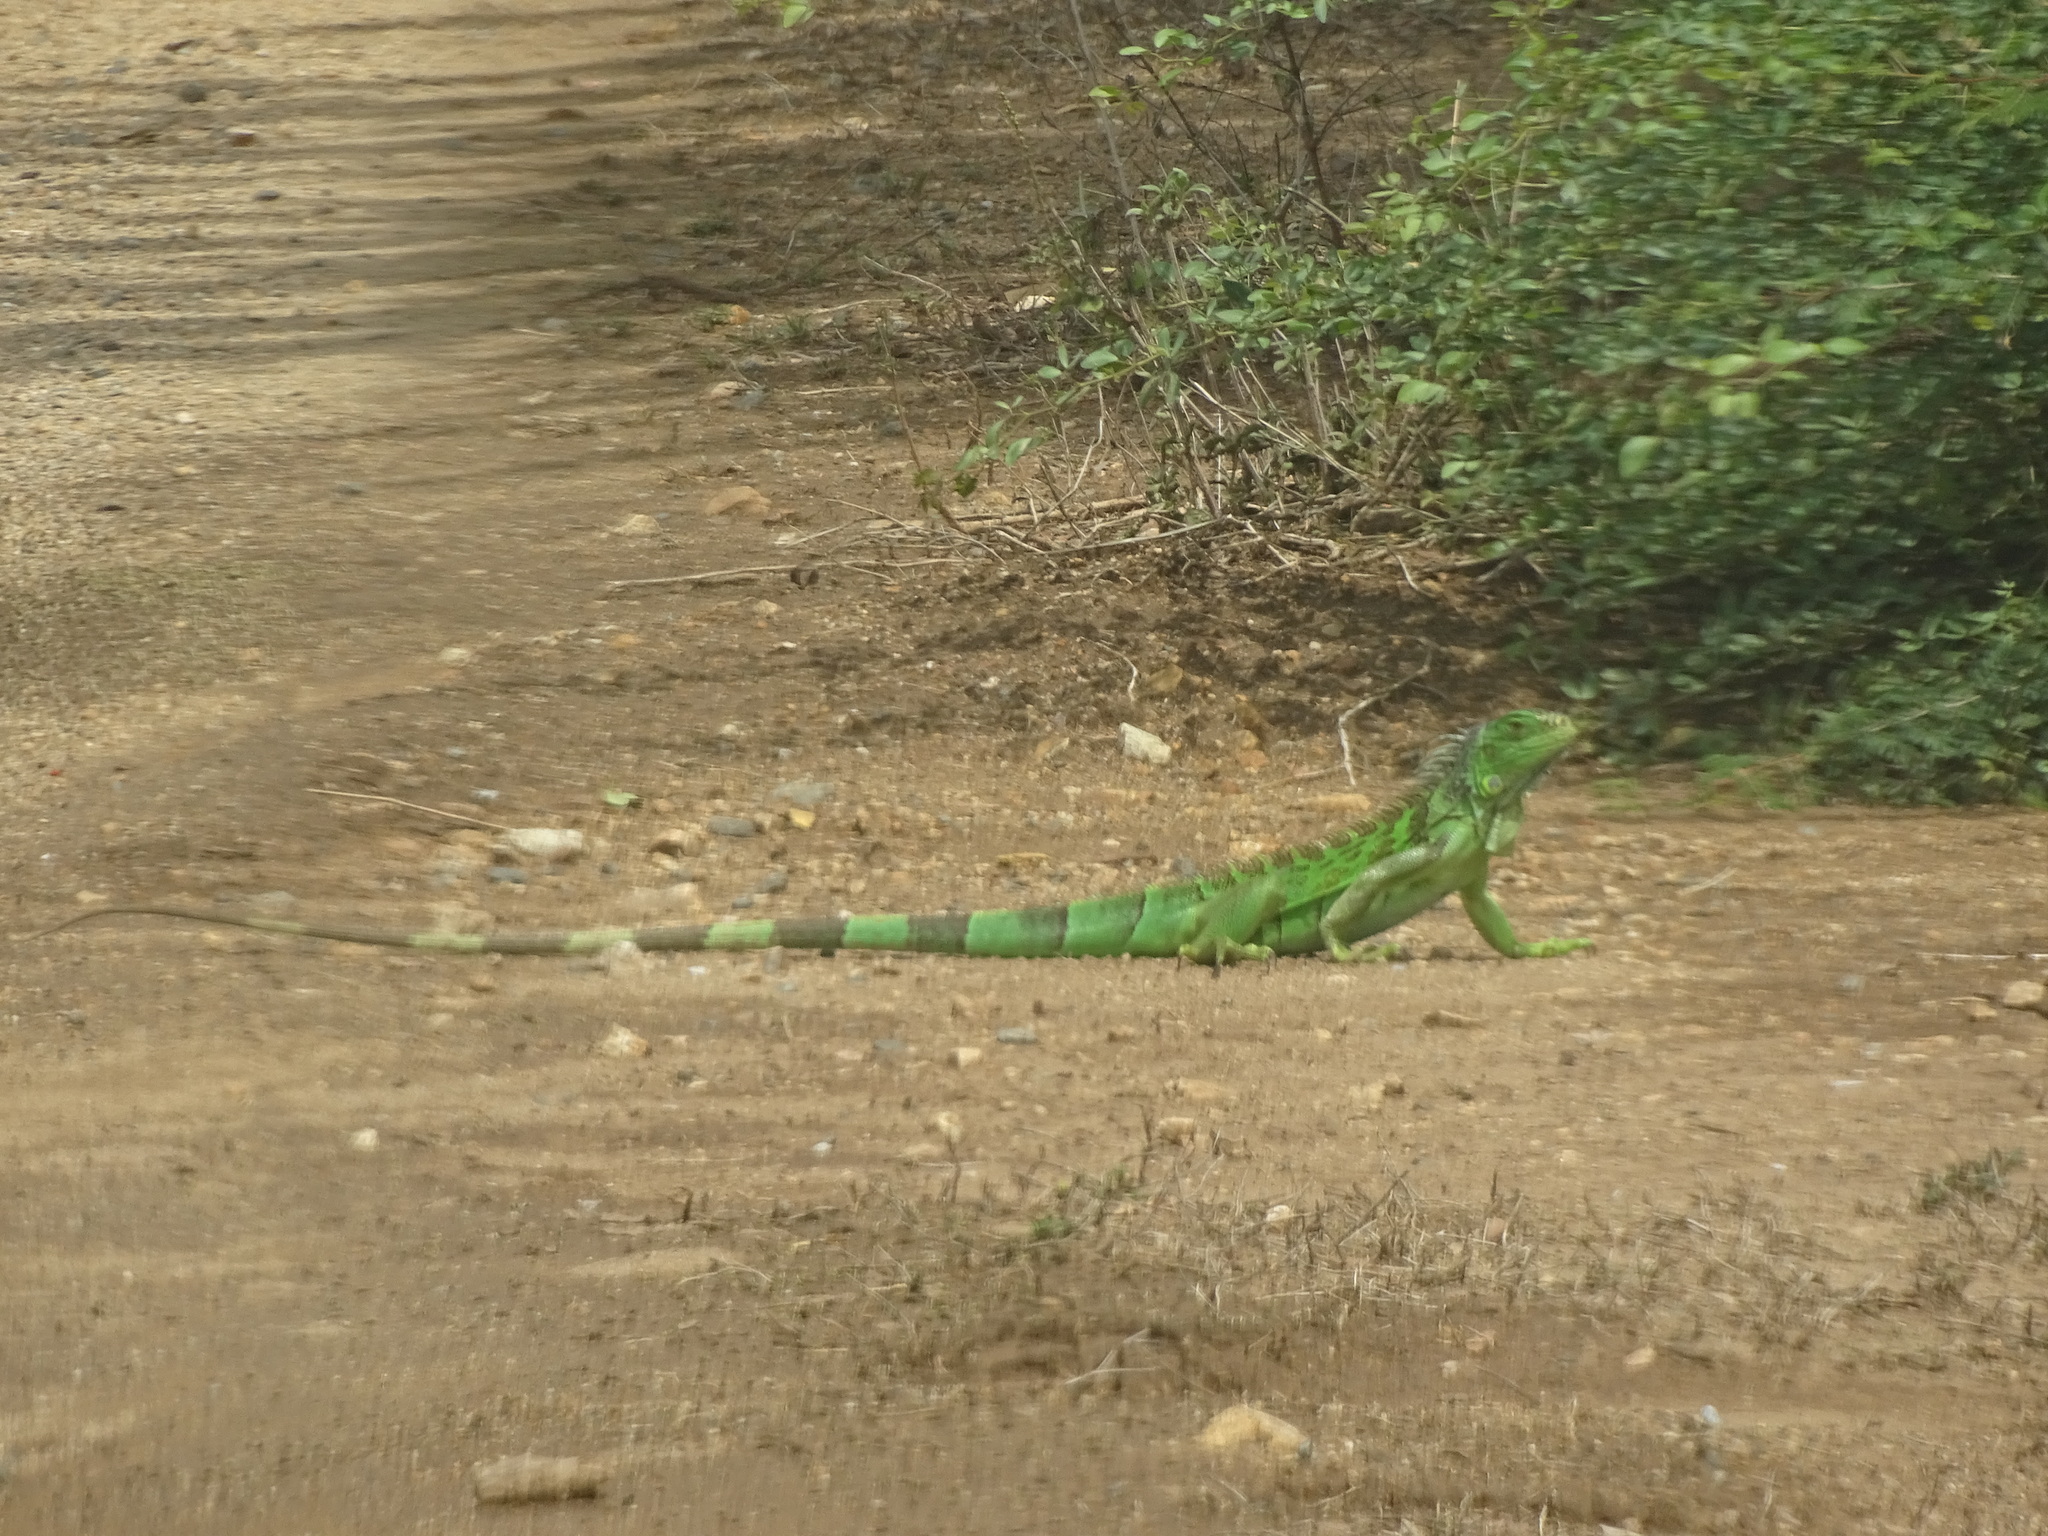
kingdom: Animalia
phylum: Chordata
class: Squamata
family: Iguanidae
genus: Iguana
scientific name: Iguana iguana
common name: Green iguana
